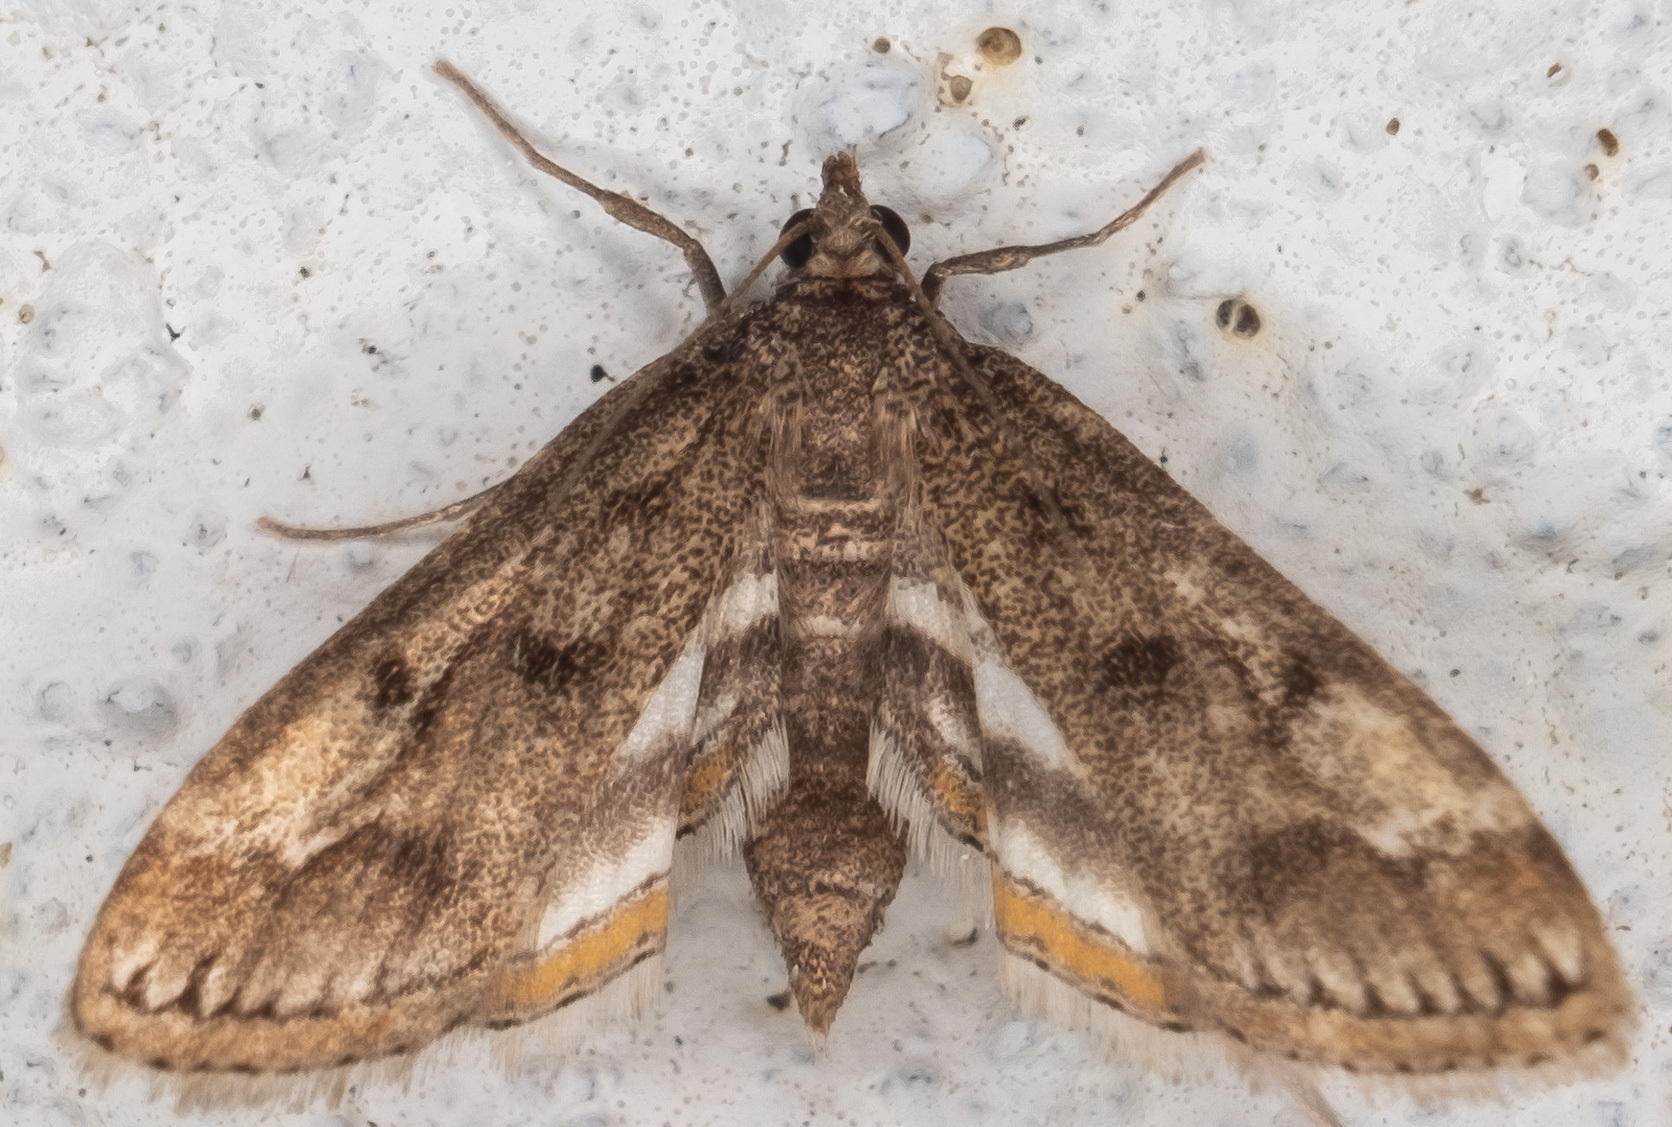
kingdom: Animalia
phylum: Arthropoda
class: Insecta
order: Lepidoptera
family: Crambidae
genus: Parapoynx
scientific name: Parapoynx obscuralis
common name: American china-mark
